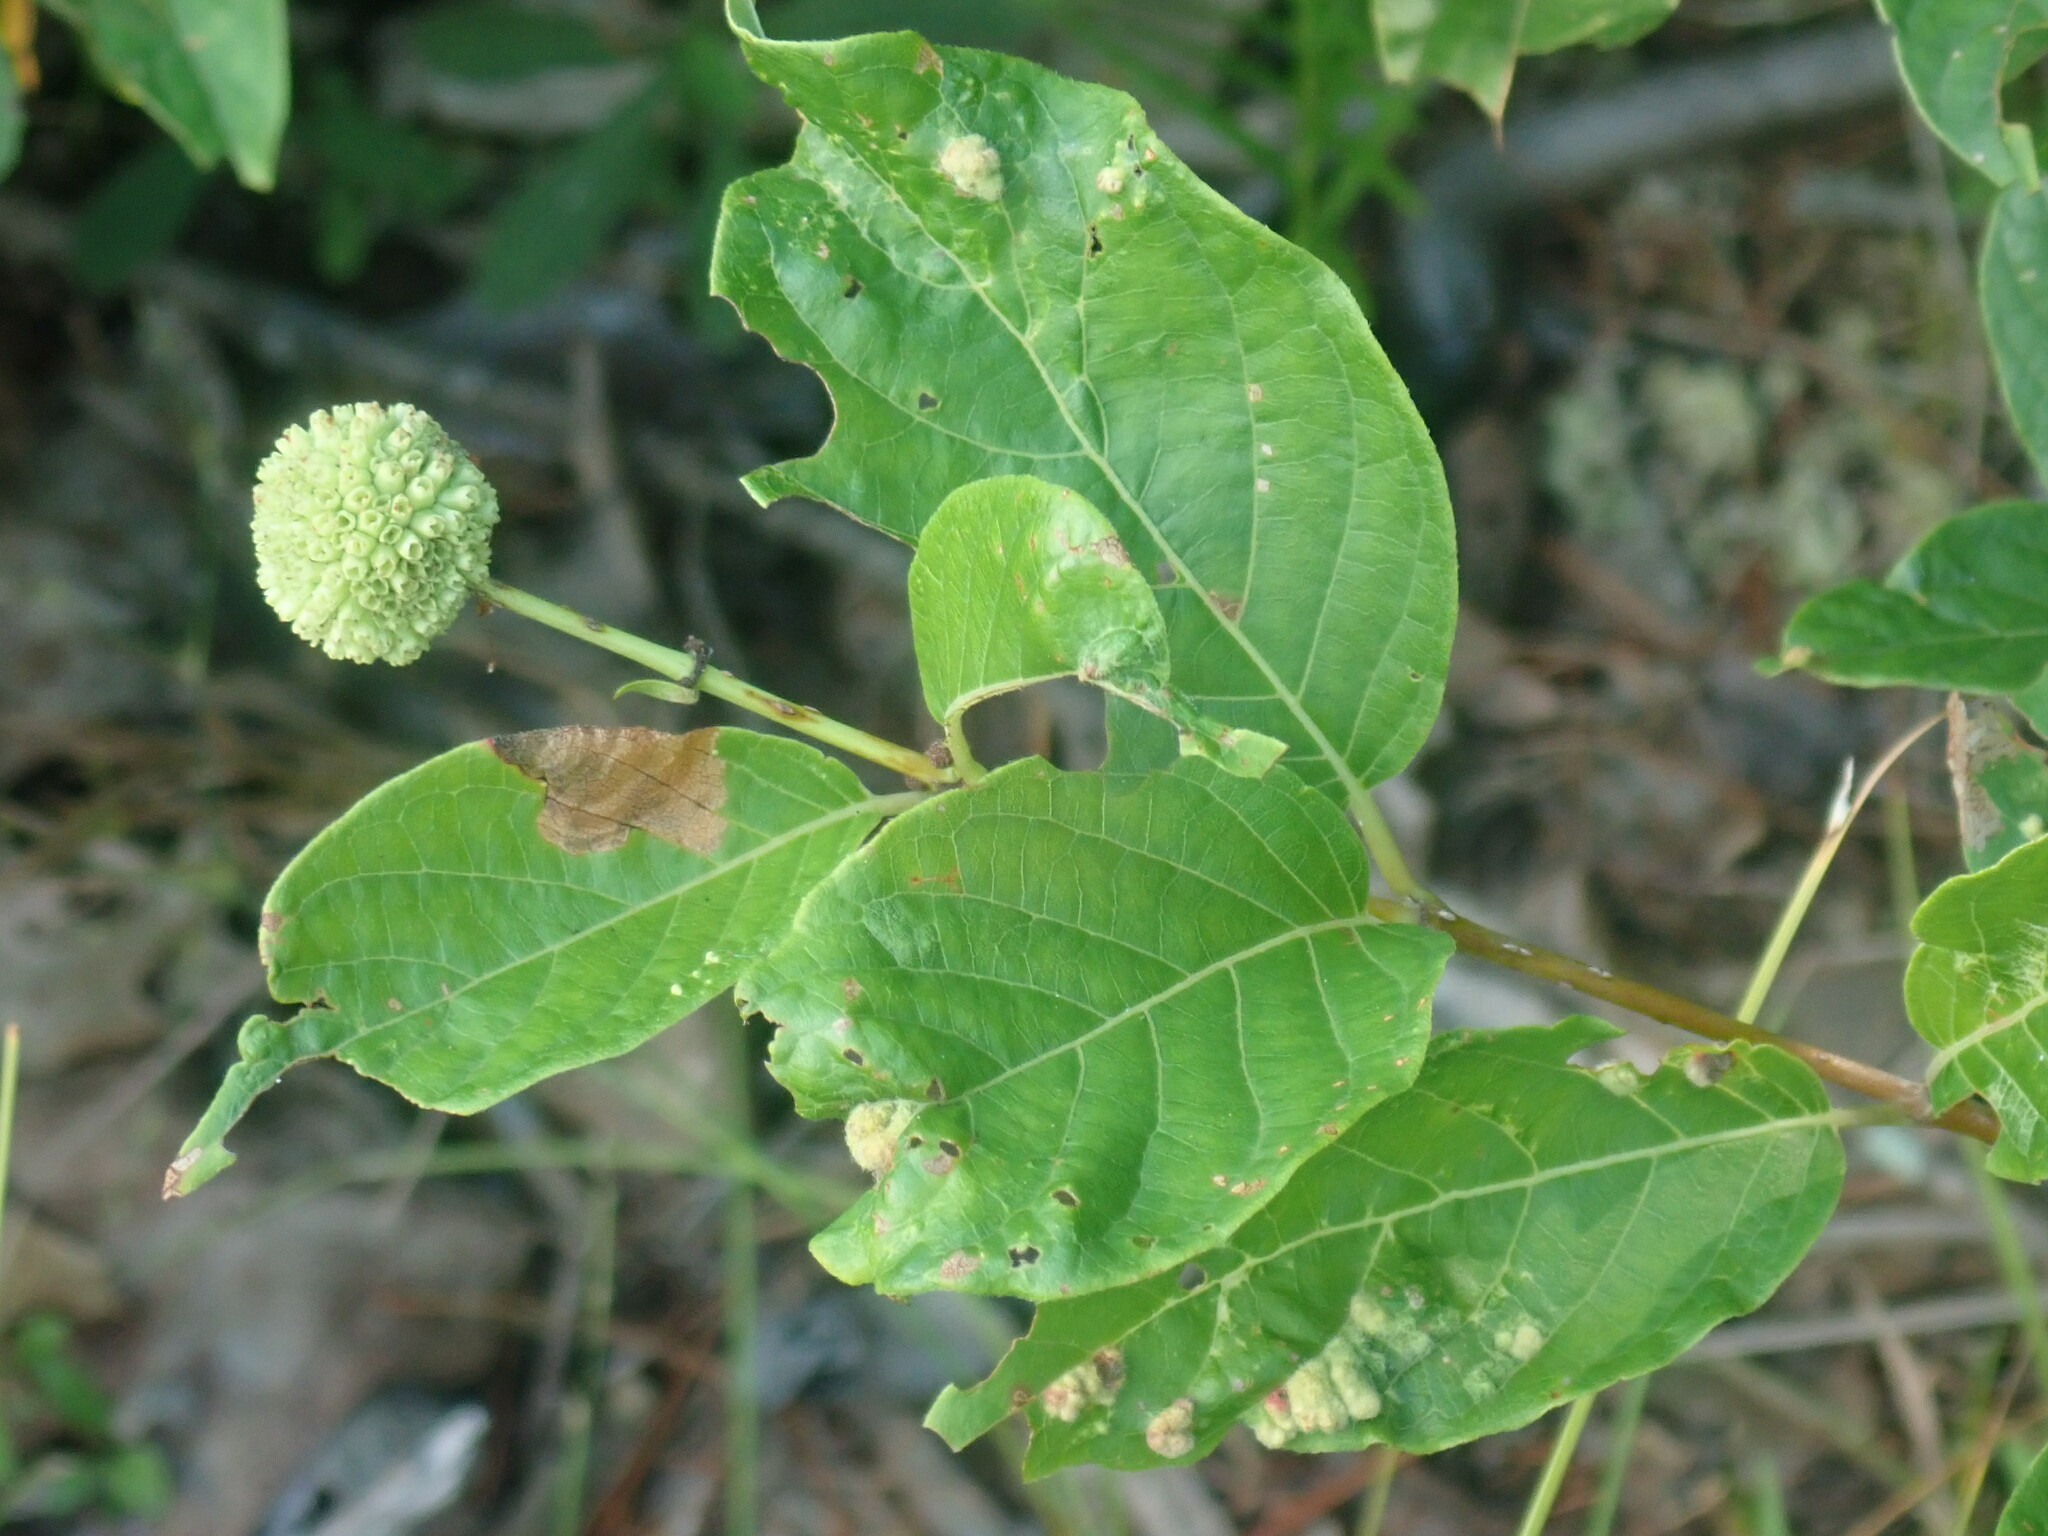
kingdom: Plantae
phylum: Tracheophyta
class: Magnoliopsida
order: Gentianales
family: Rubiaceae
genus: Cephalanthus
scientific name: Cephalanthus occidentalis
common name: Button-willow
